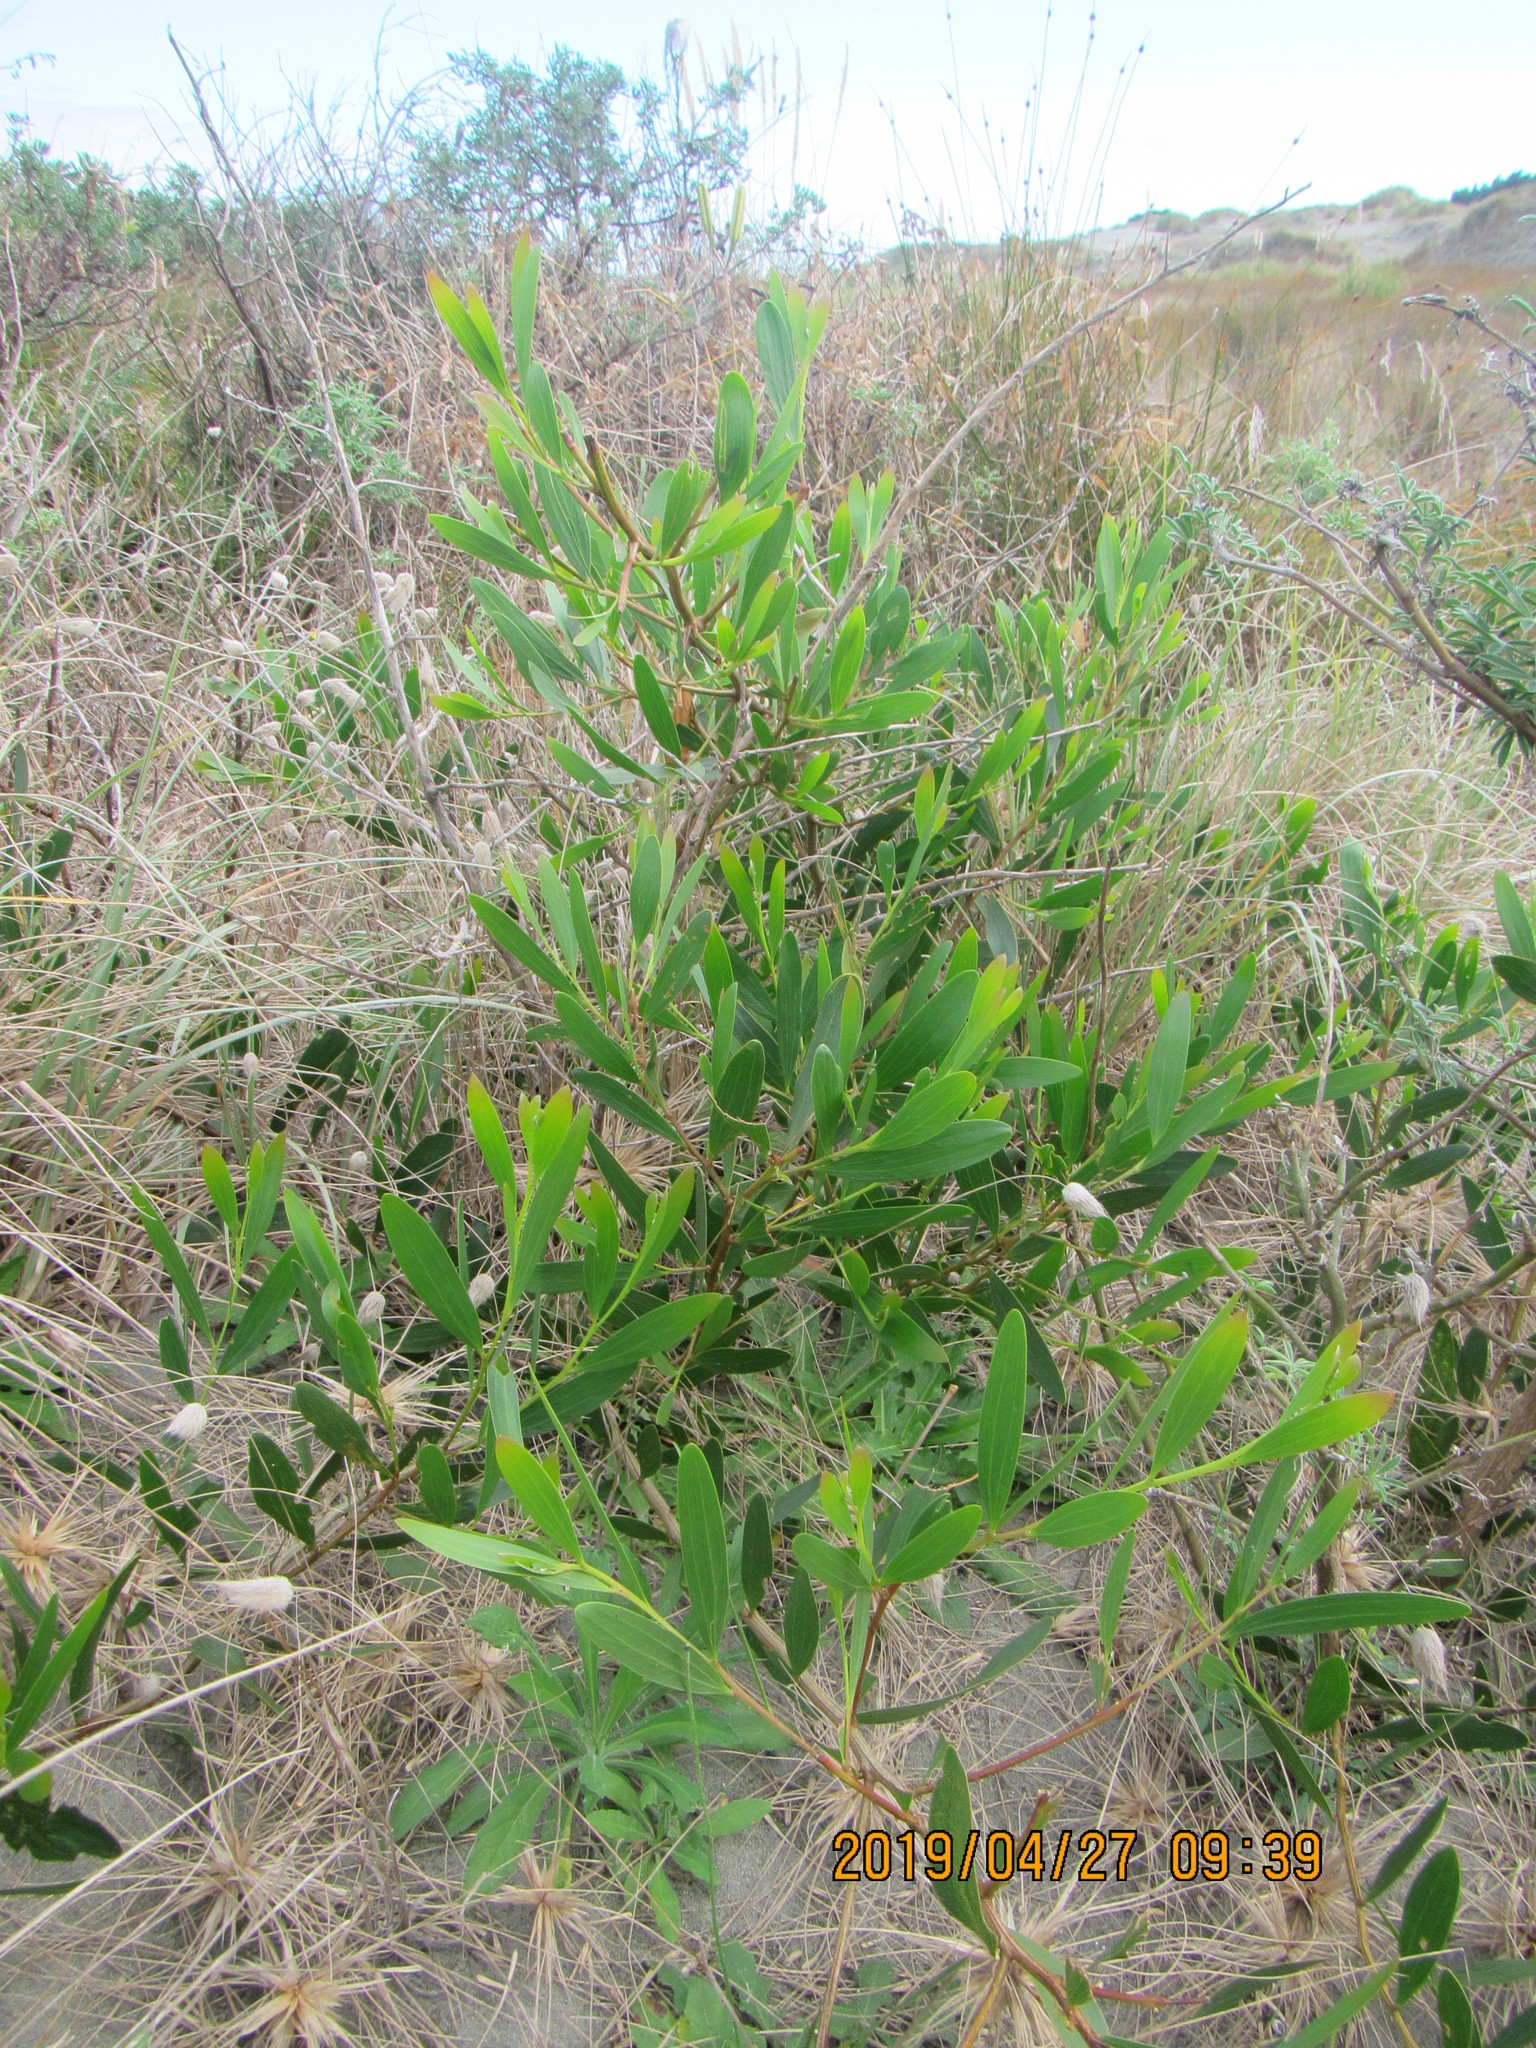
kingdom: Plantae
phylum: Tracheophyta
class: Magnoliopsida
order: Fabales
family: Fabaceae
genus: Acacia
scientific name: Acacia longifolia
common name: Sydney golden wattle
